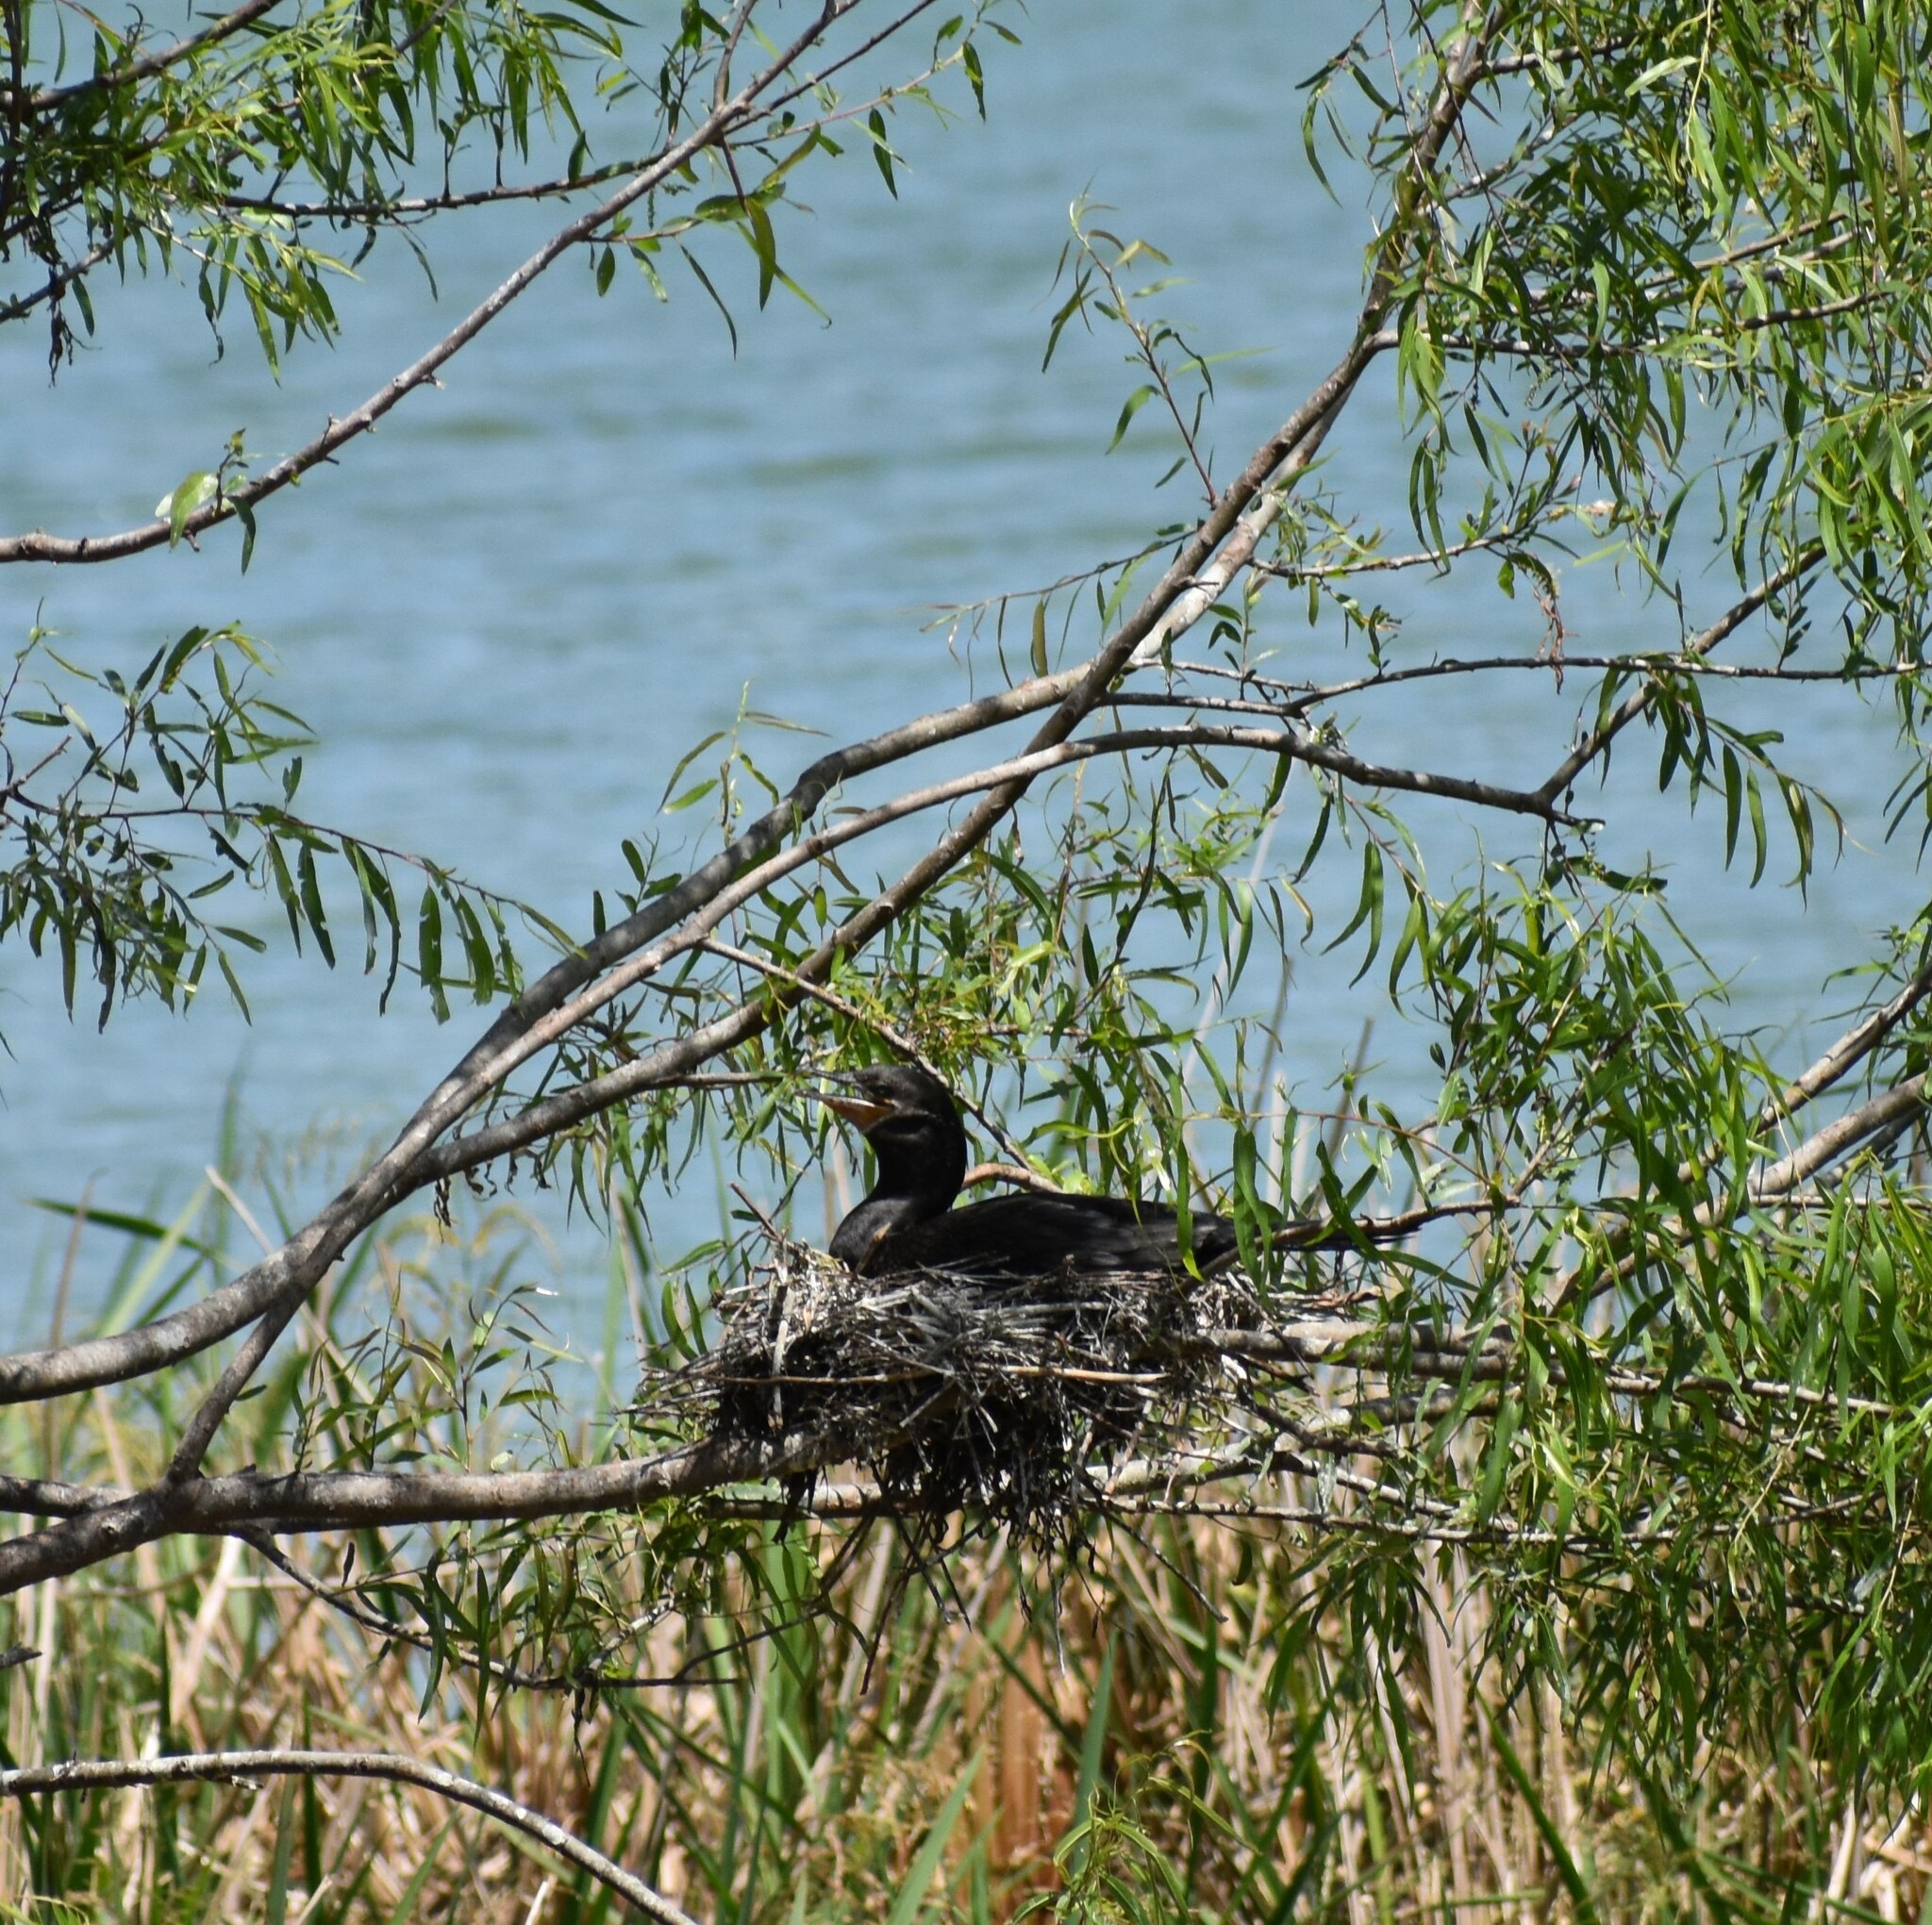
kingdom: Animalia
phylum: Chordata
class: Aves
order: Suliformes
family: Phalacrocoracidae
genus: Phalacrocorax
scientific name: Phalacrocorax brasilianus
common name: Neotropic cormorant
